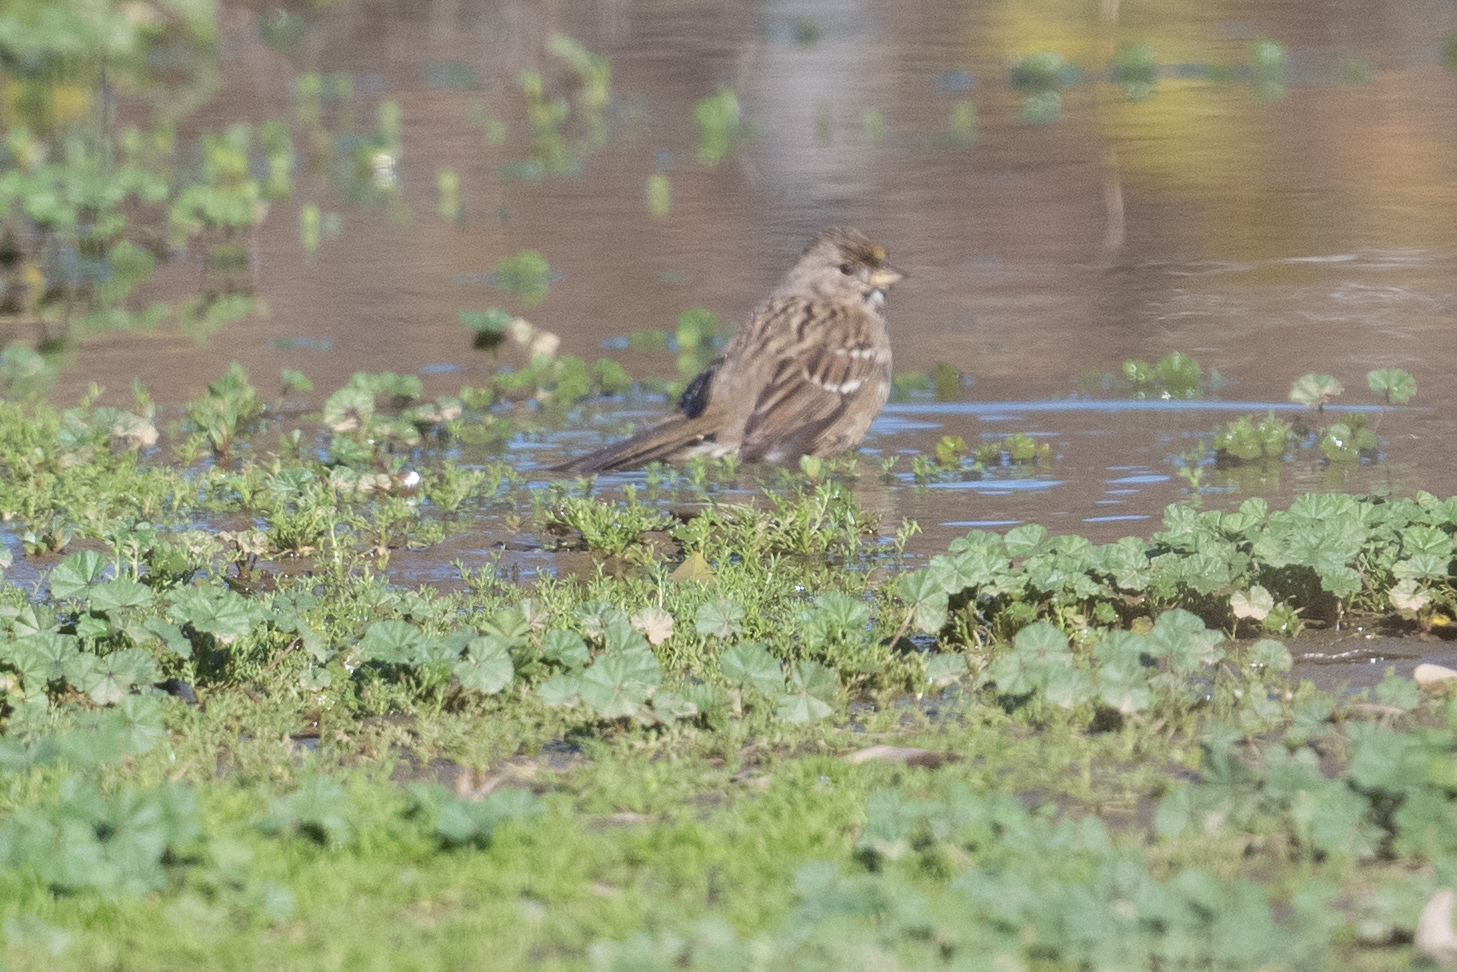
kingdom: Animalia
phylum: Chordata
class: Aves
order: Passeriformes
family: Passerellidae
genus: Zonotrichia
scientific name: Zonotrichia atricapilla
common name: Golden-crowned sparrow
